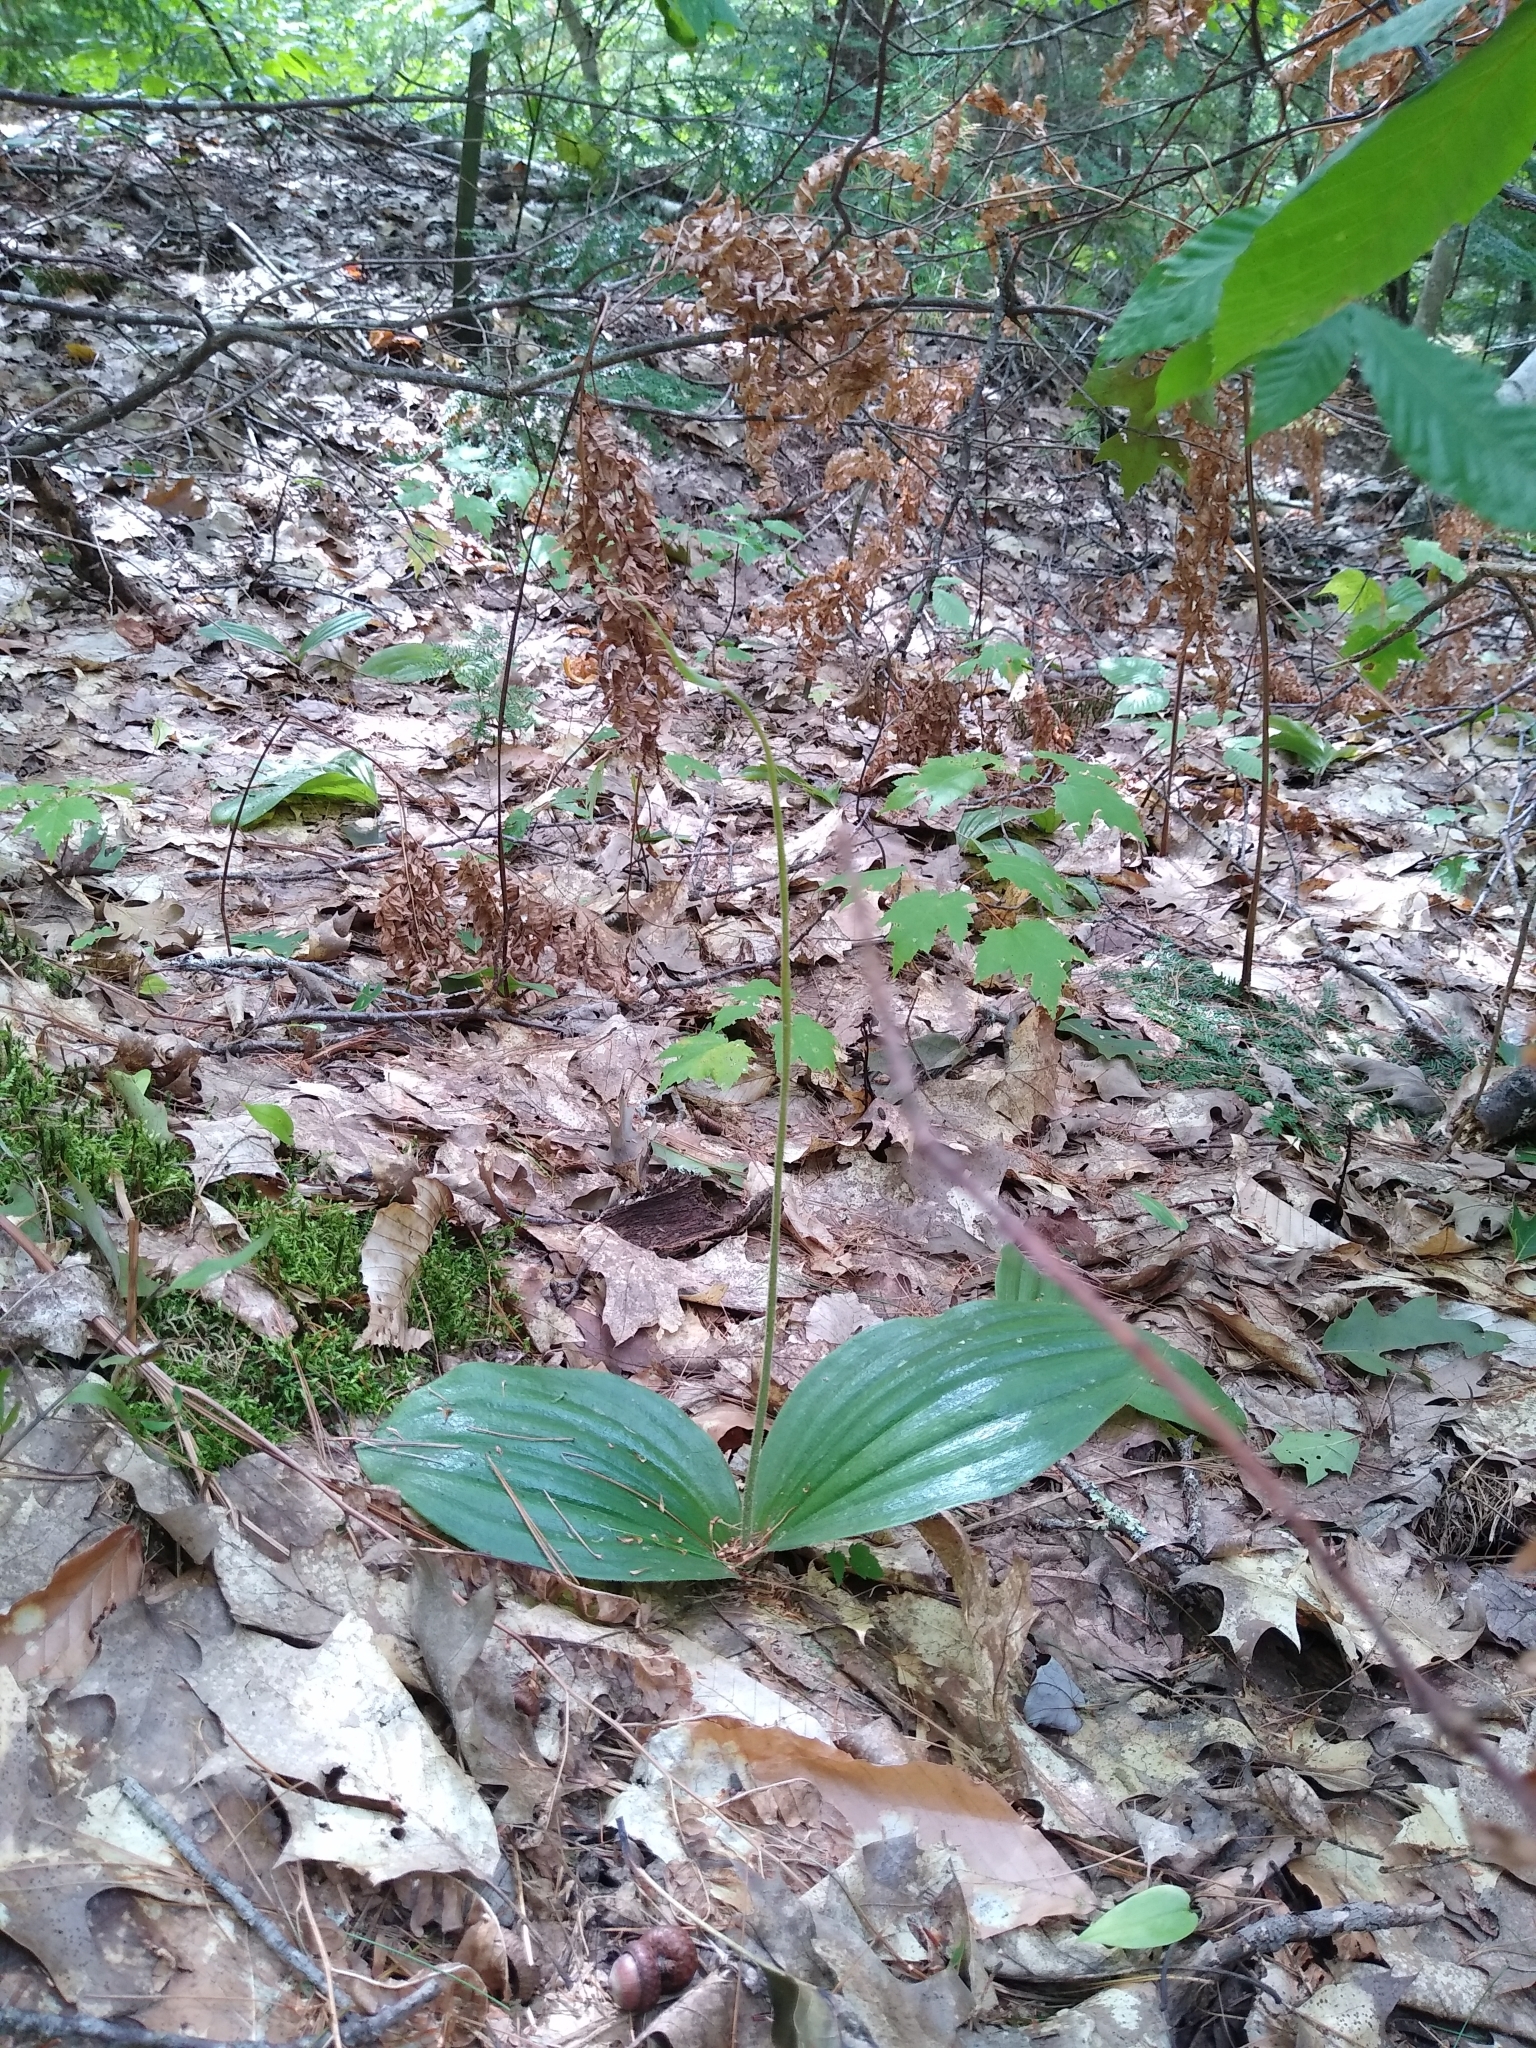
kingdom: Plantae
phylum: Tracheophyta
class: Liliopsida
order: Asparagales
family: Orchidaceae
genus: Cypripedium
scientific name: Cypripedium acaule
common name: Pink lady's-slipper
